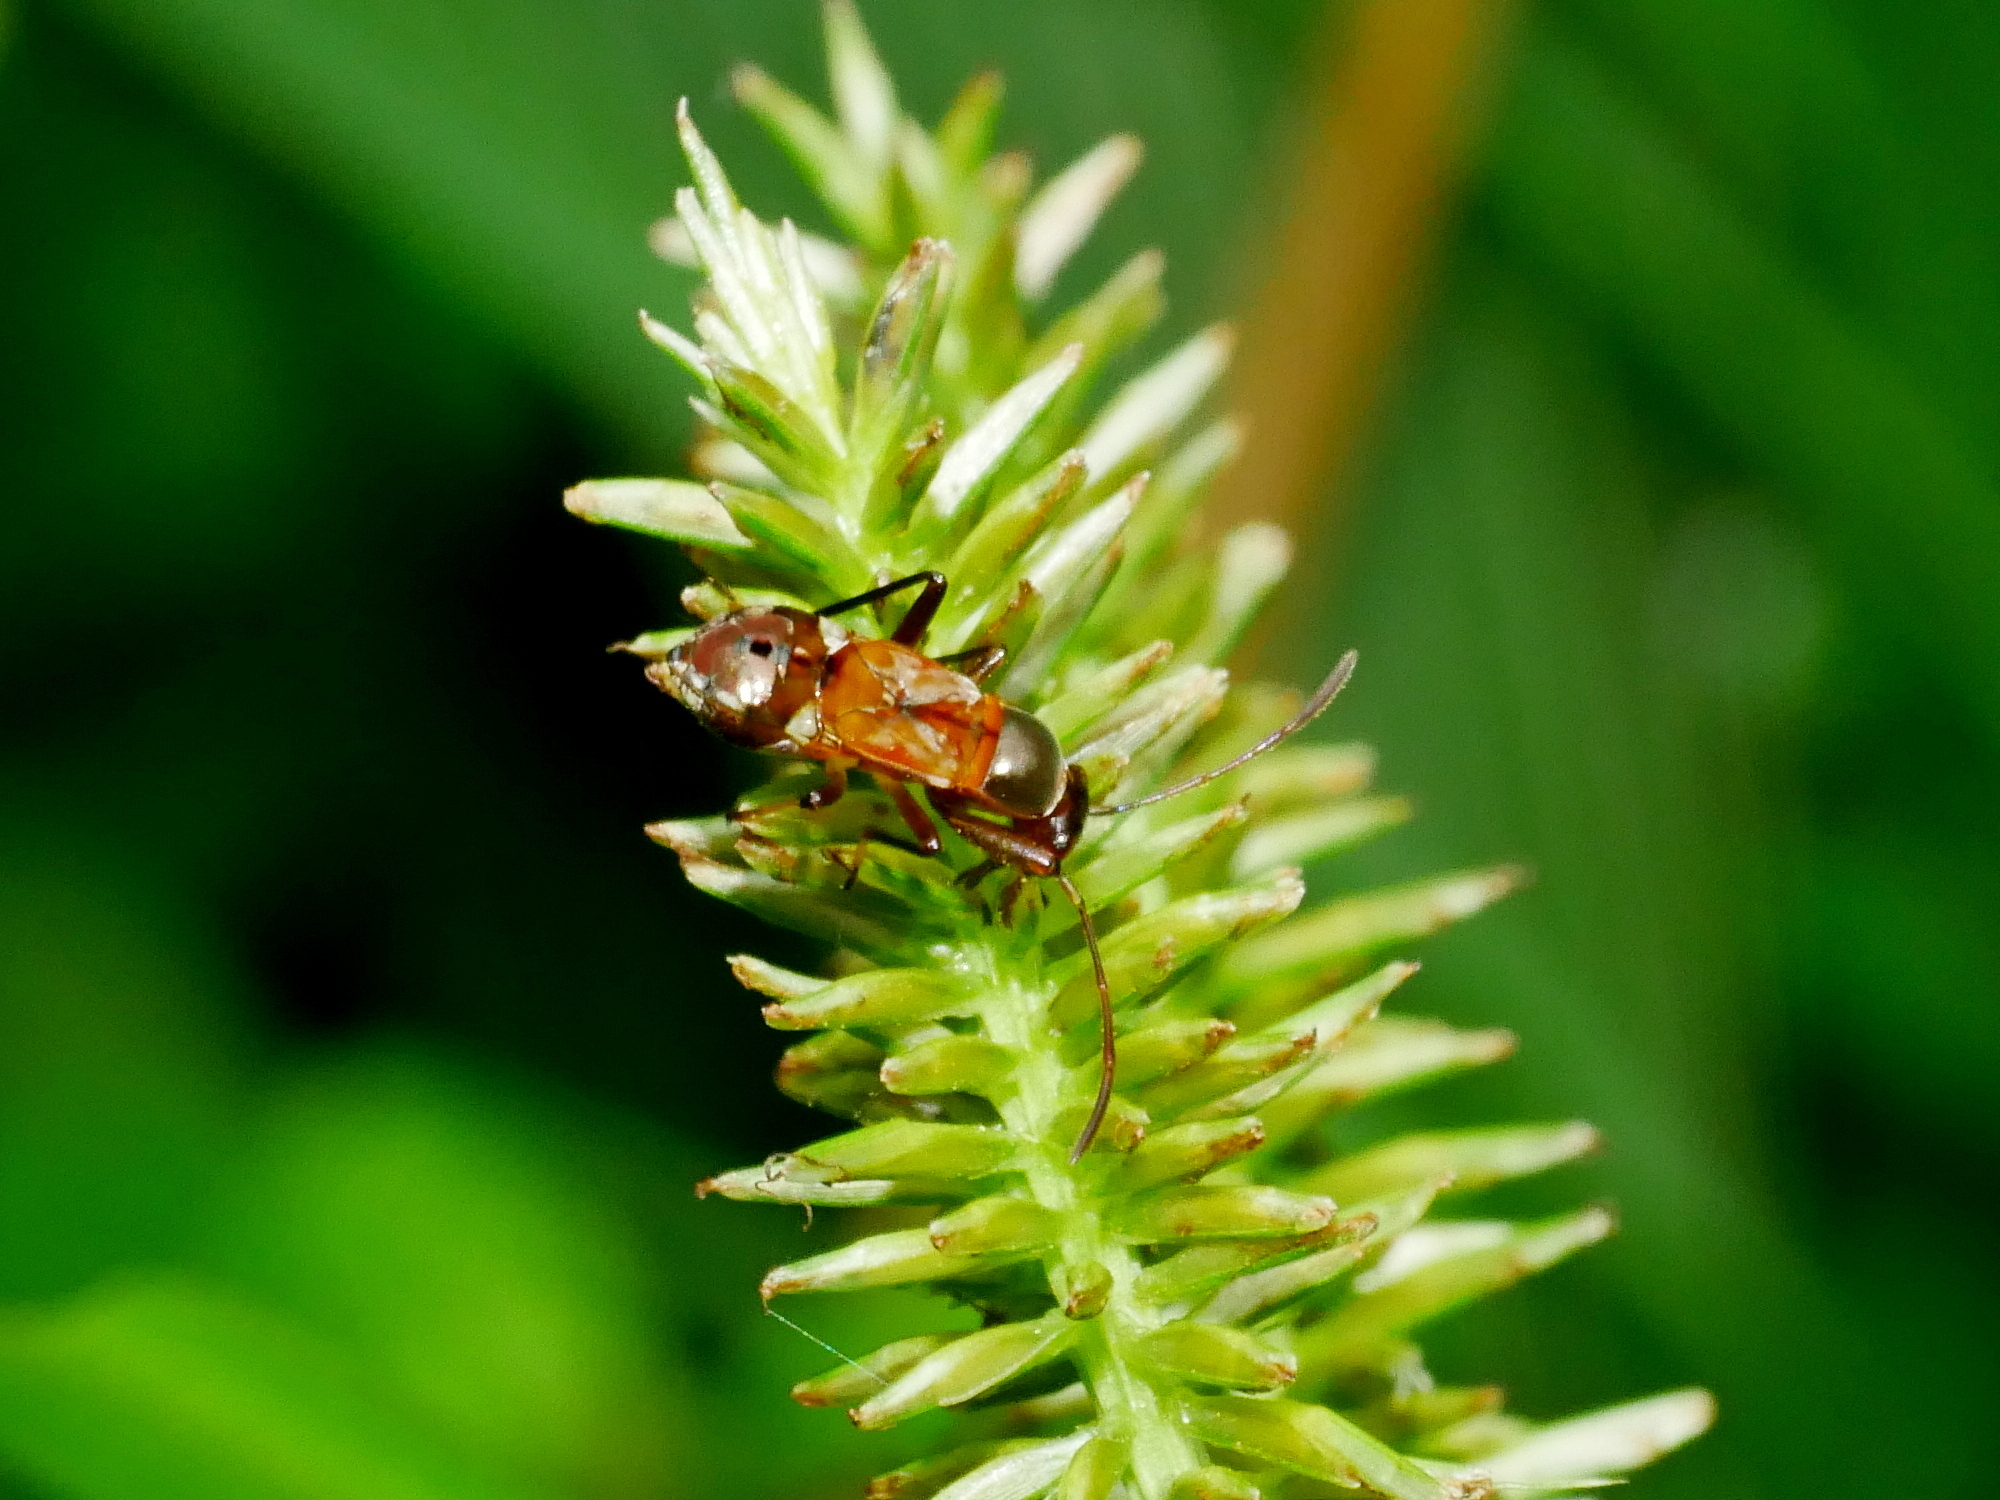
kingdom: Animalia
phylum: Arthropoda
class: Insecta
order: Hemiptera
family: Rhyparochromidae
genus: Eucosmetus
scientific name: Eucosmetus formosus
